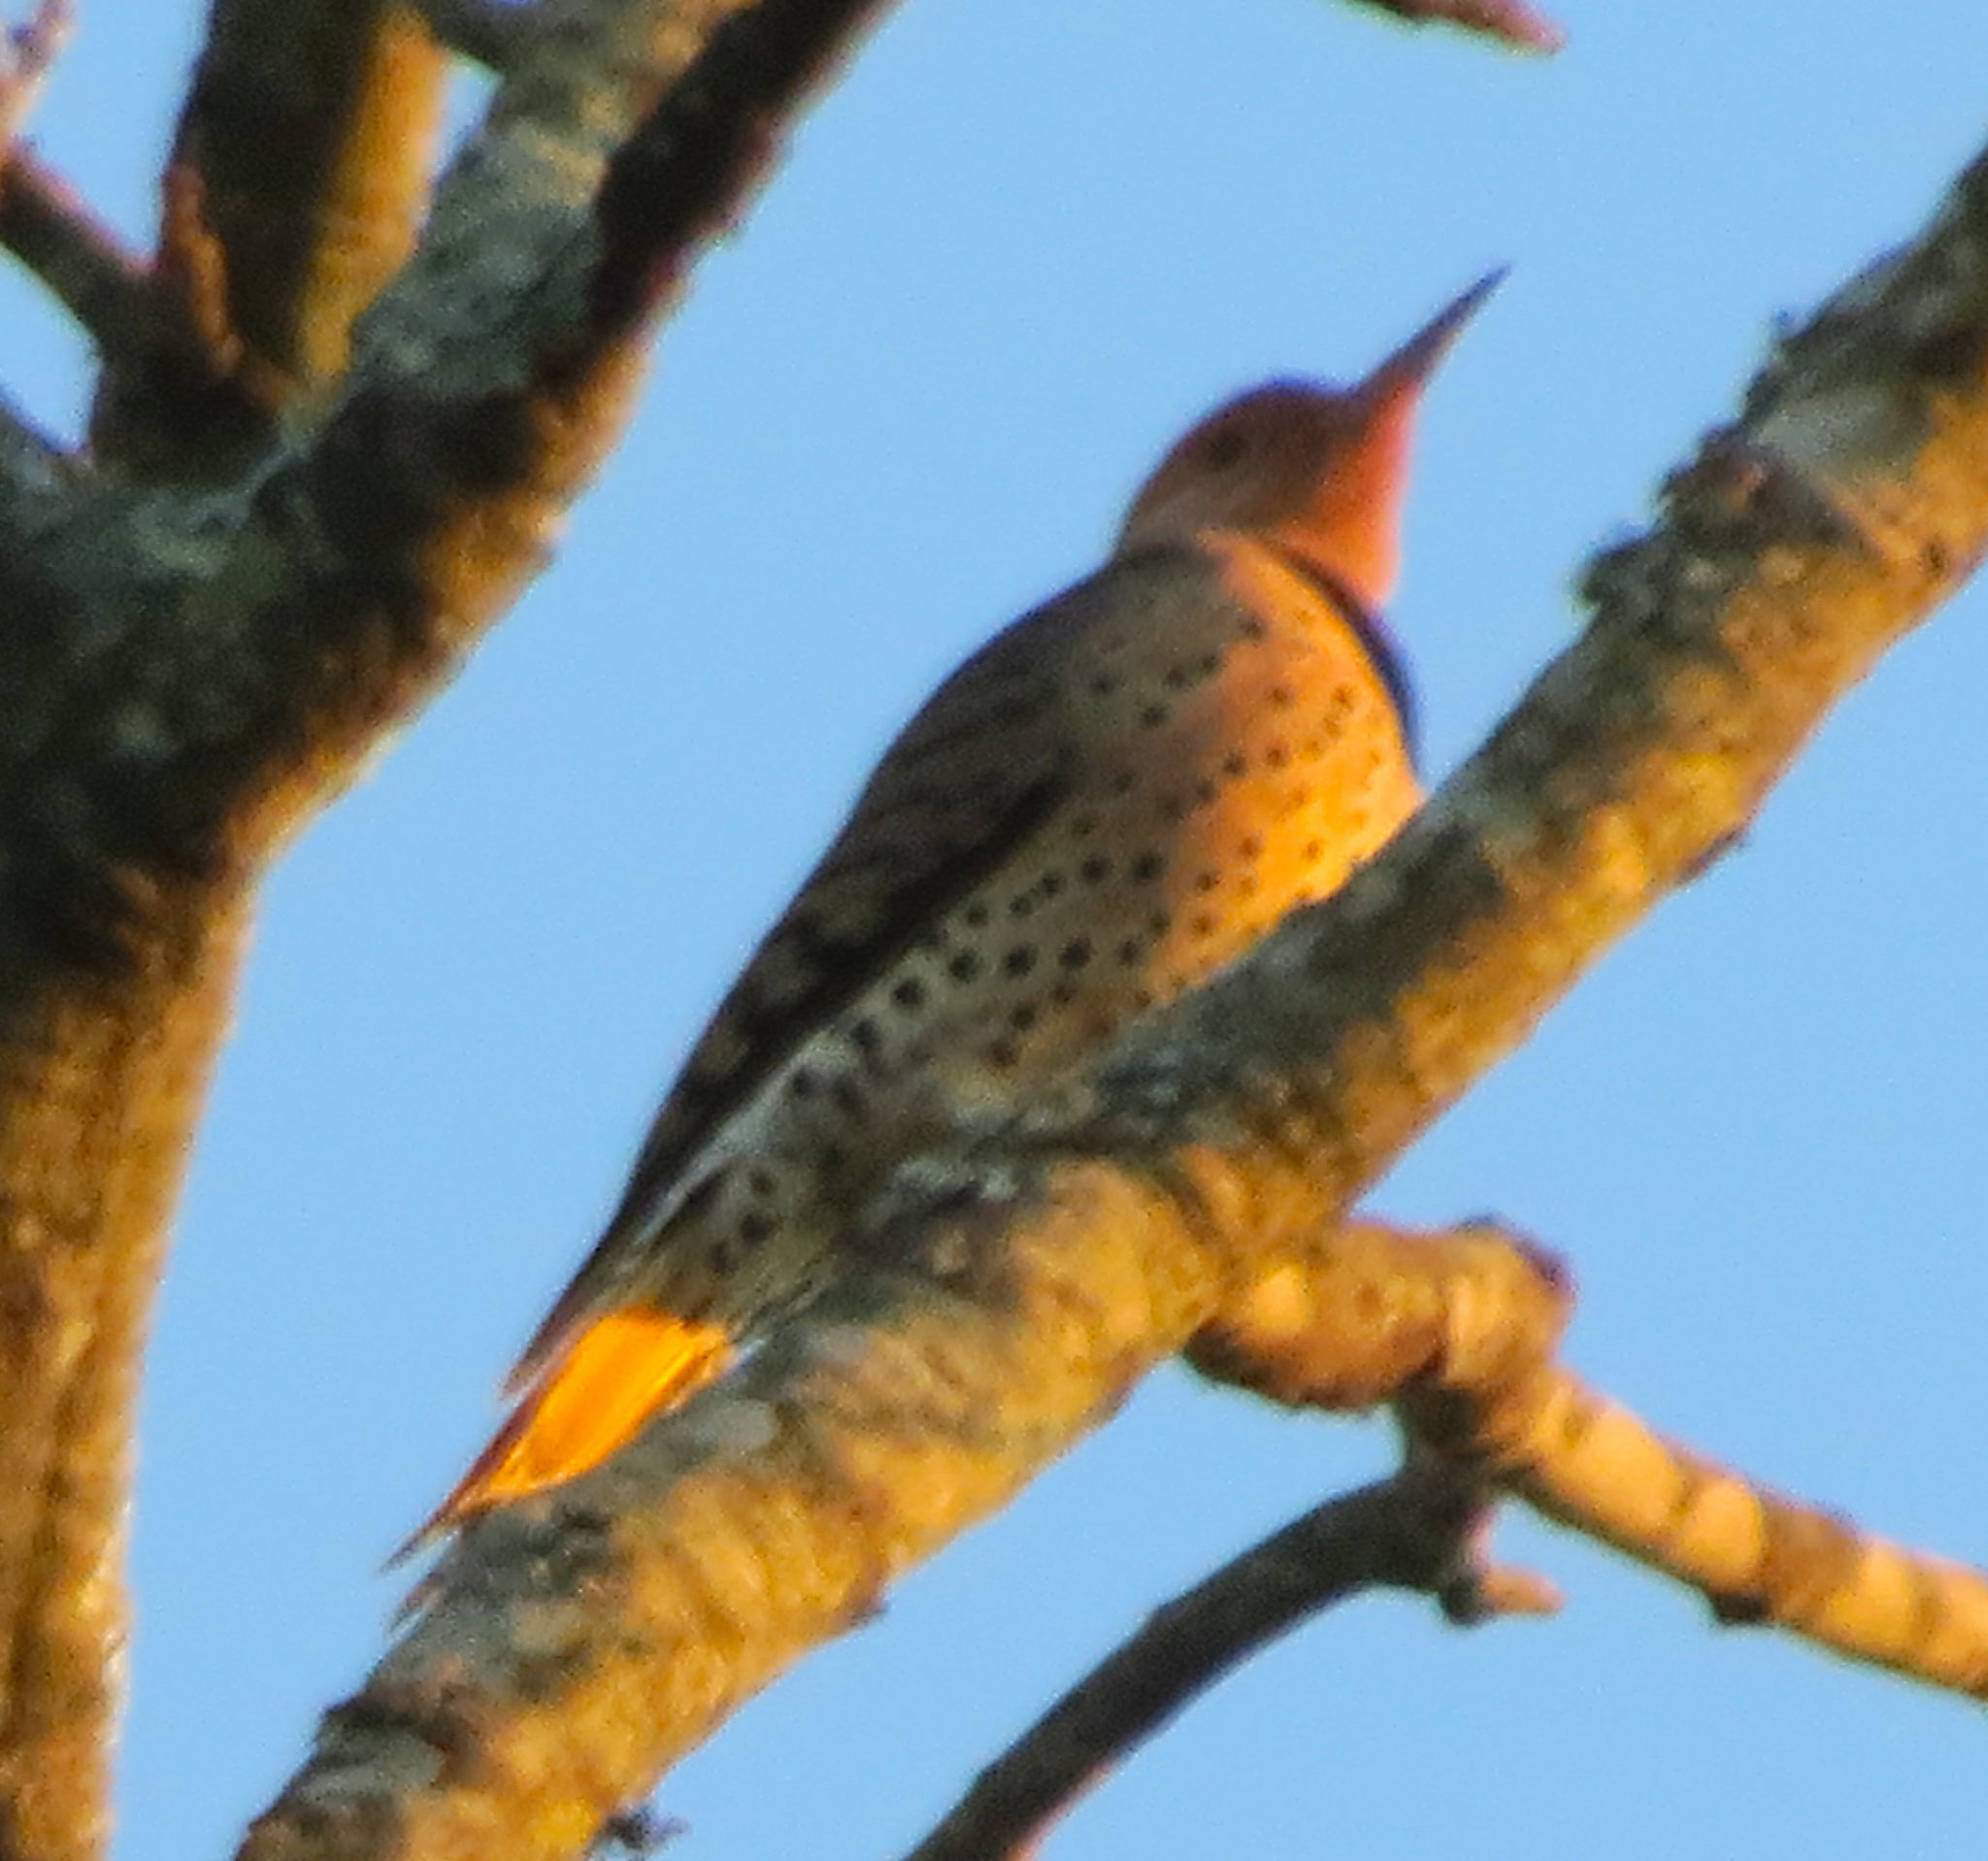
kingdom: Animalia
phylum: Chordata
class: Aves
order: Piciformes
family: Picidae
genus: Colaptes
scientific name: Colaptes auratus
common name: Northern flicker
